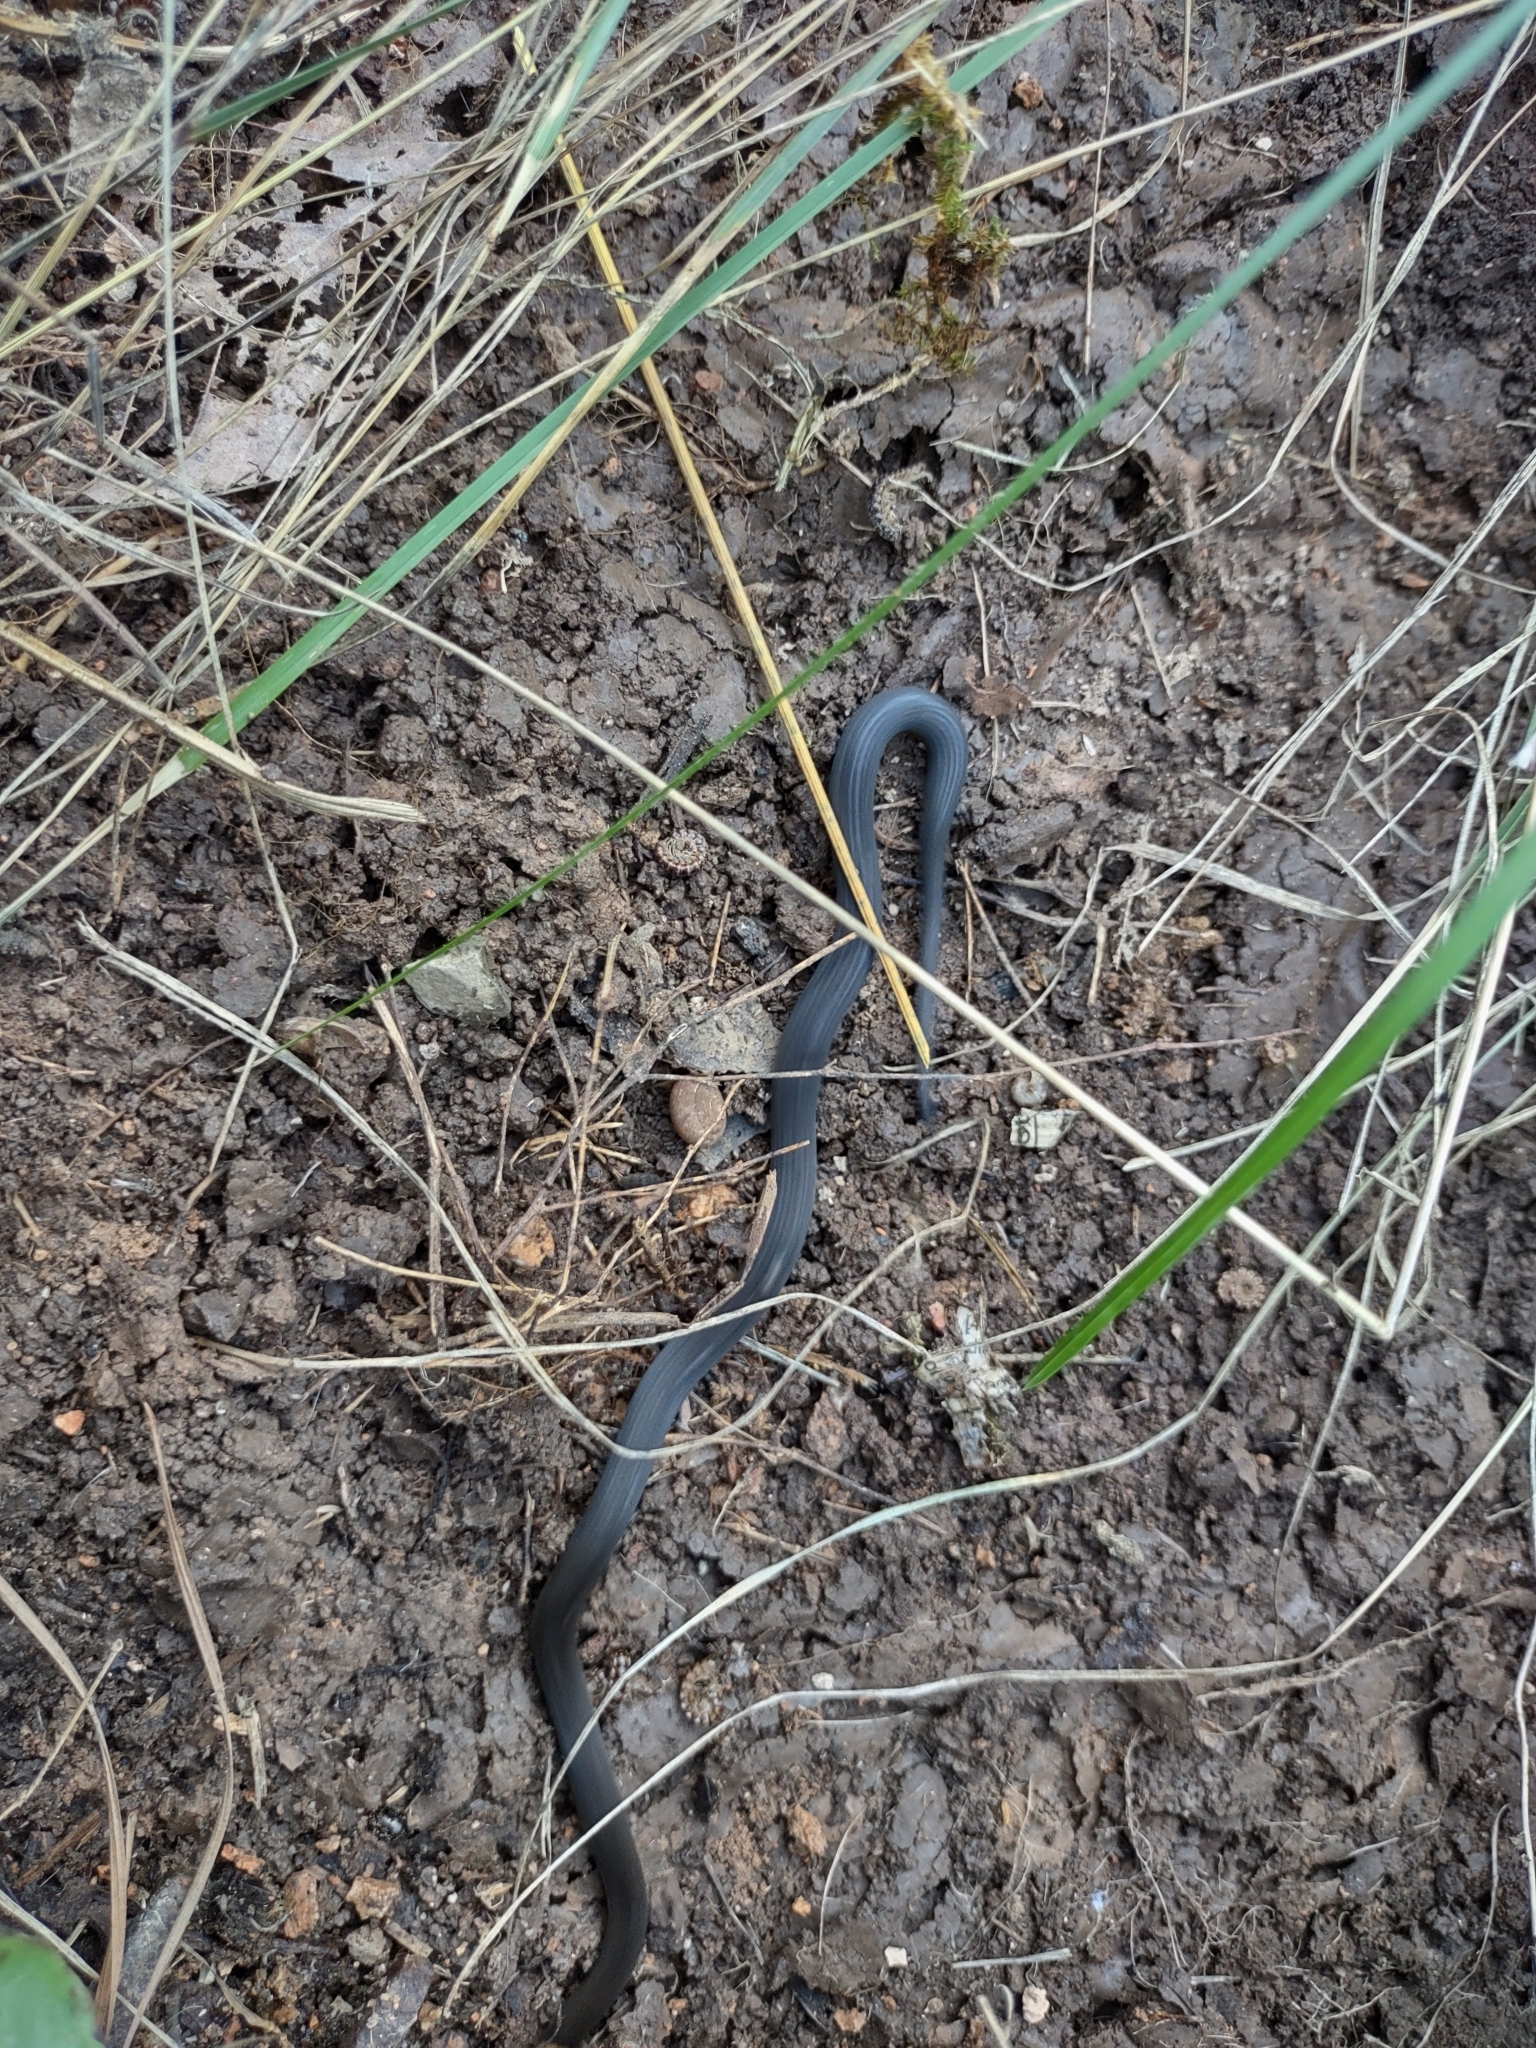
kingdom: Animalia
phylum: Chordata
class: Squamata
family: Colubridae
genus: Diadophis
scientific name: Diadophis punctatus
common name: Ringneck snake
